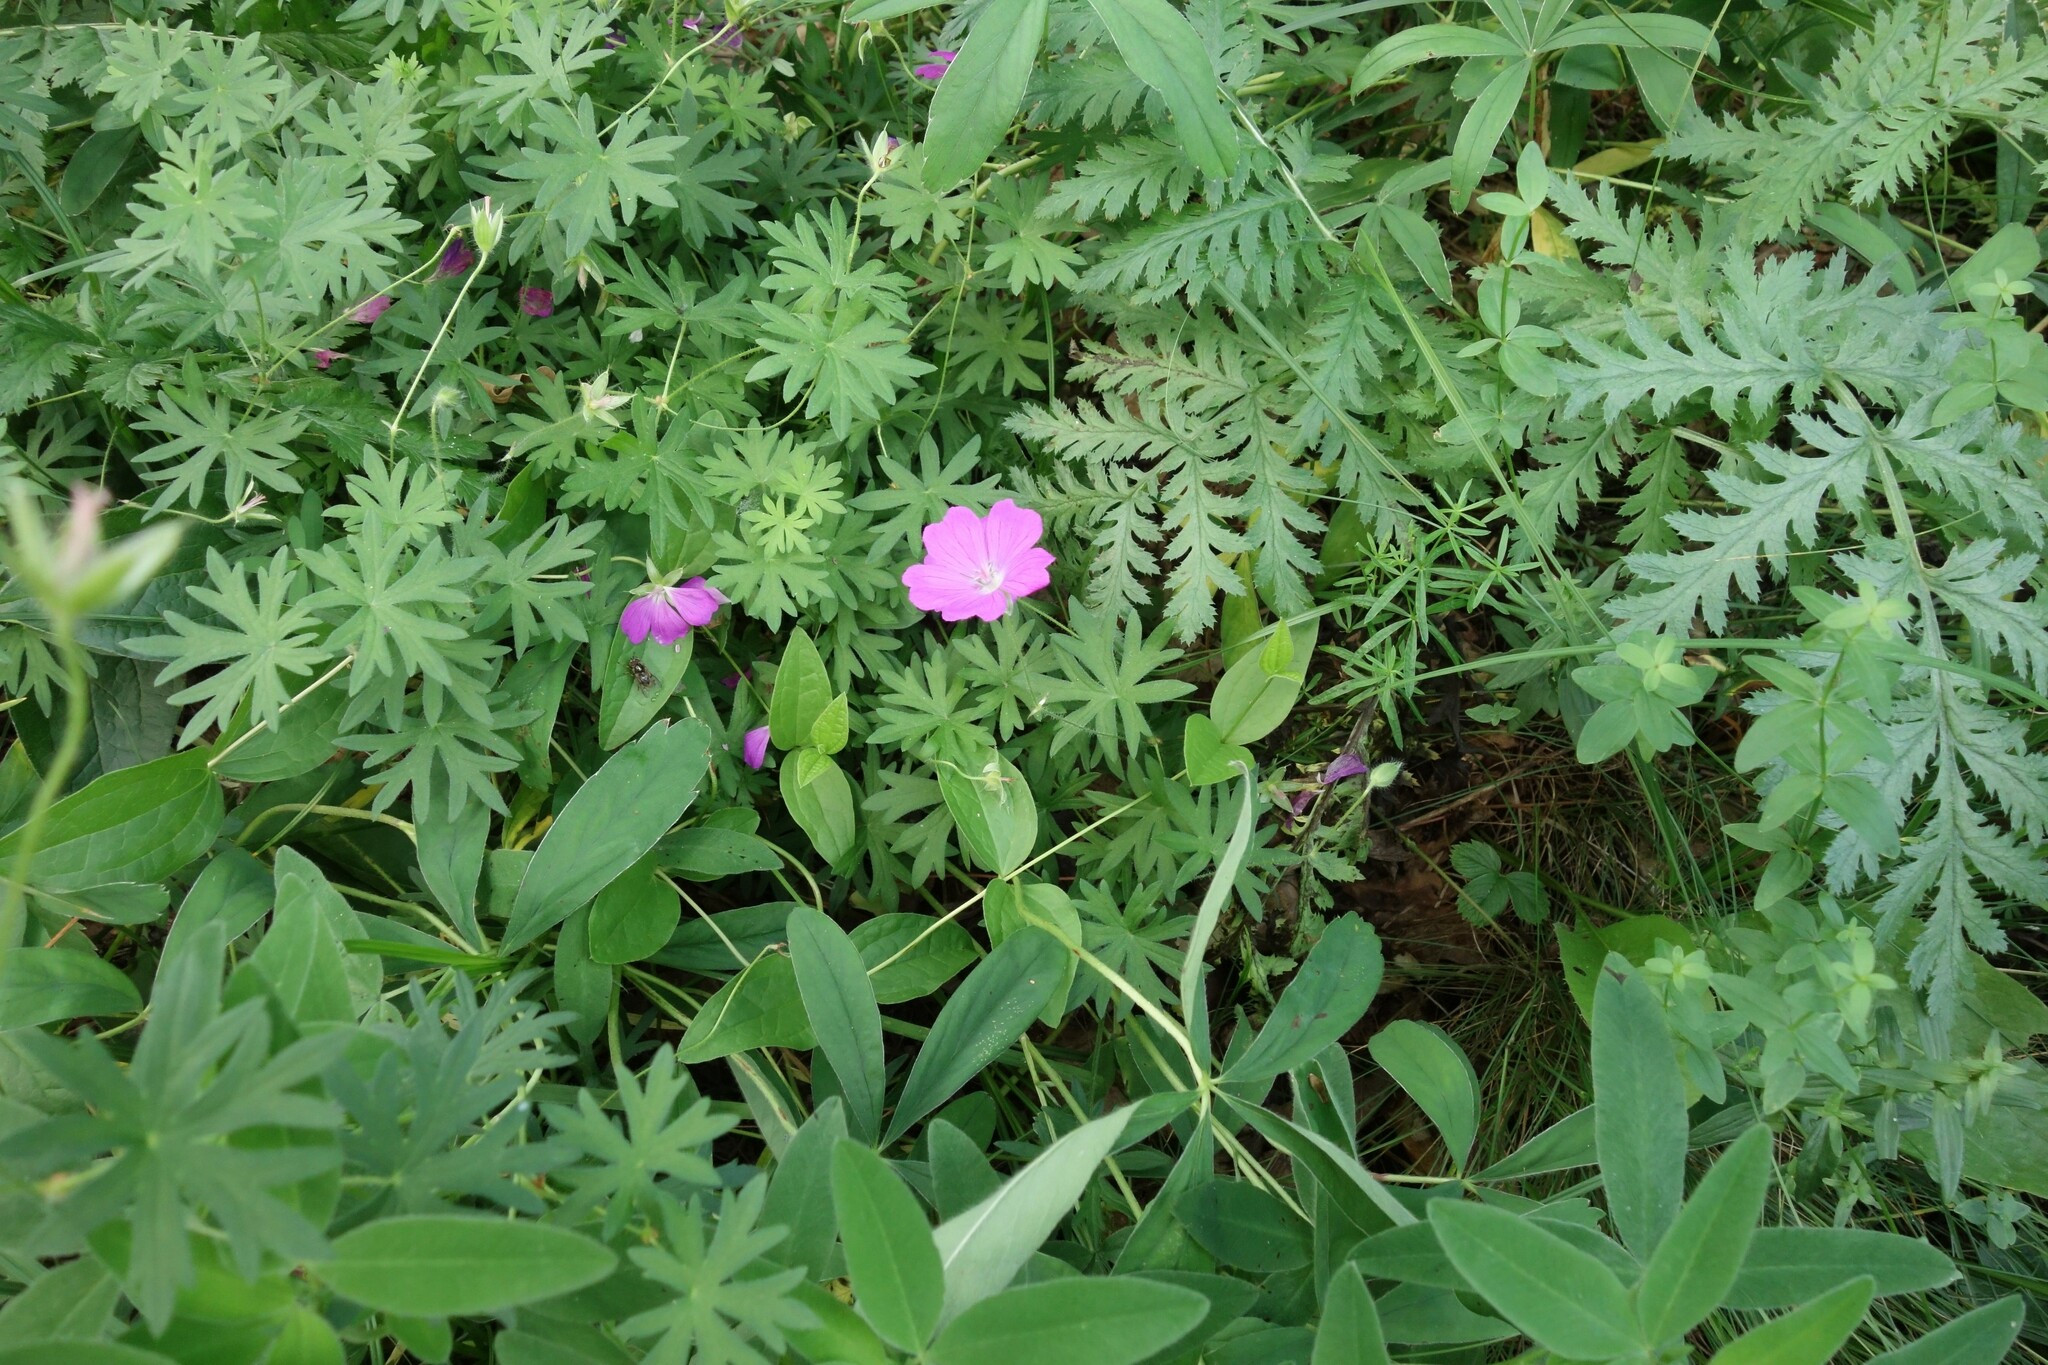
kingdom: Plantae
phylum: Tracheophyta
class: Magnoliopsida
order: Geraniales
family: Geraniaceae
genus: Geranium
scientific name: Geranium sanguineum
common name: Bloody crane's-bill
